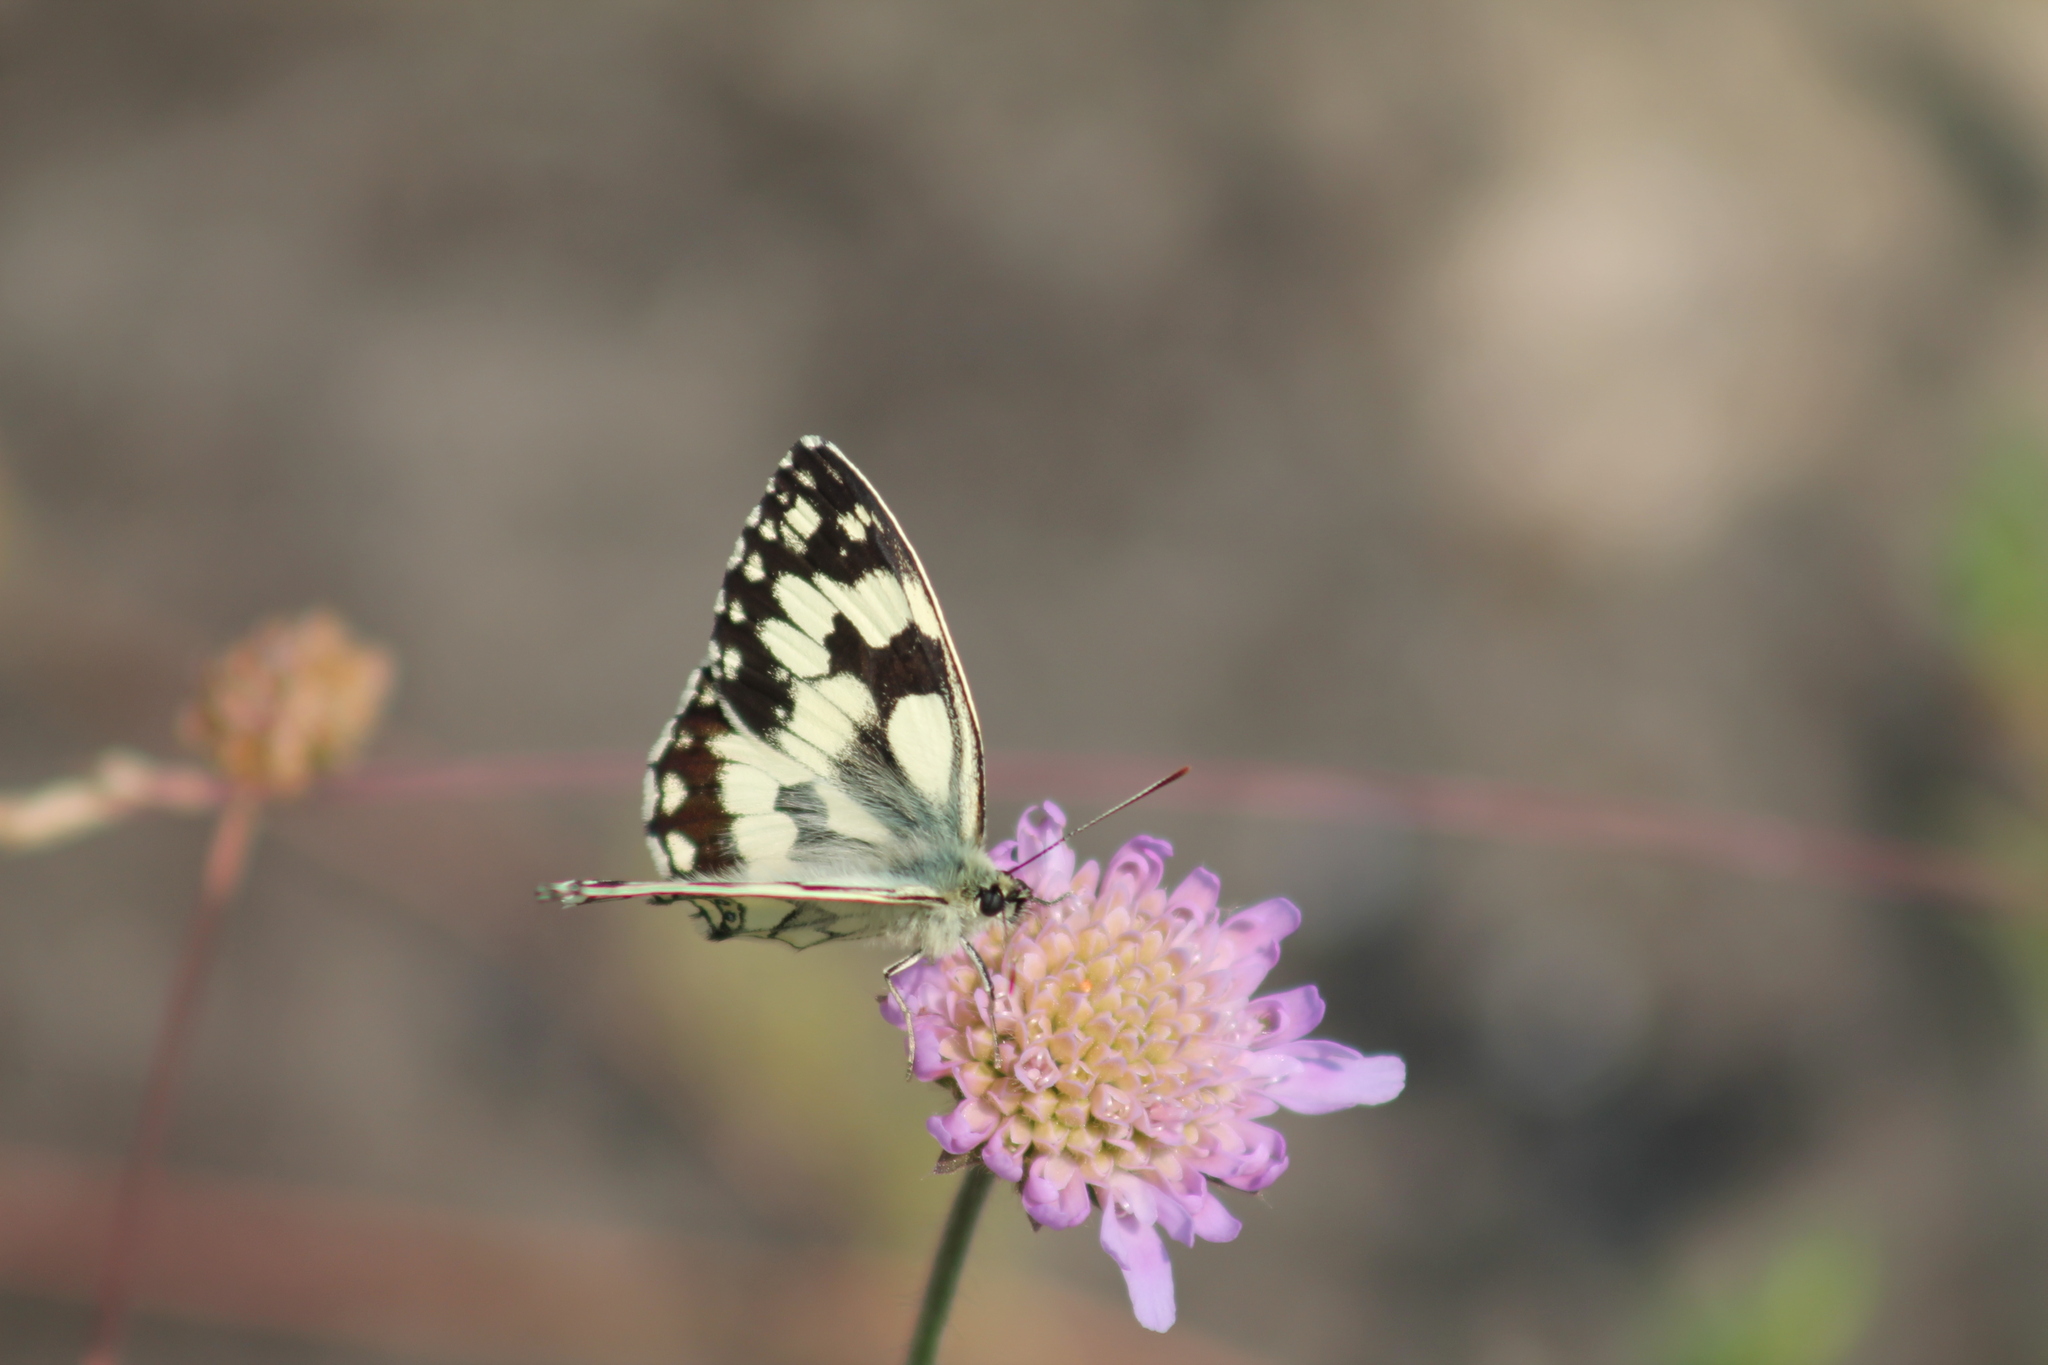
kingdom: Animalia
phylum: Arthropoda
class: Insecta
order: Lepidoptera
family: Nymphalidae
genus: Melanargia
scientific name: Melanargia galathea
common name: Marbled white
